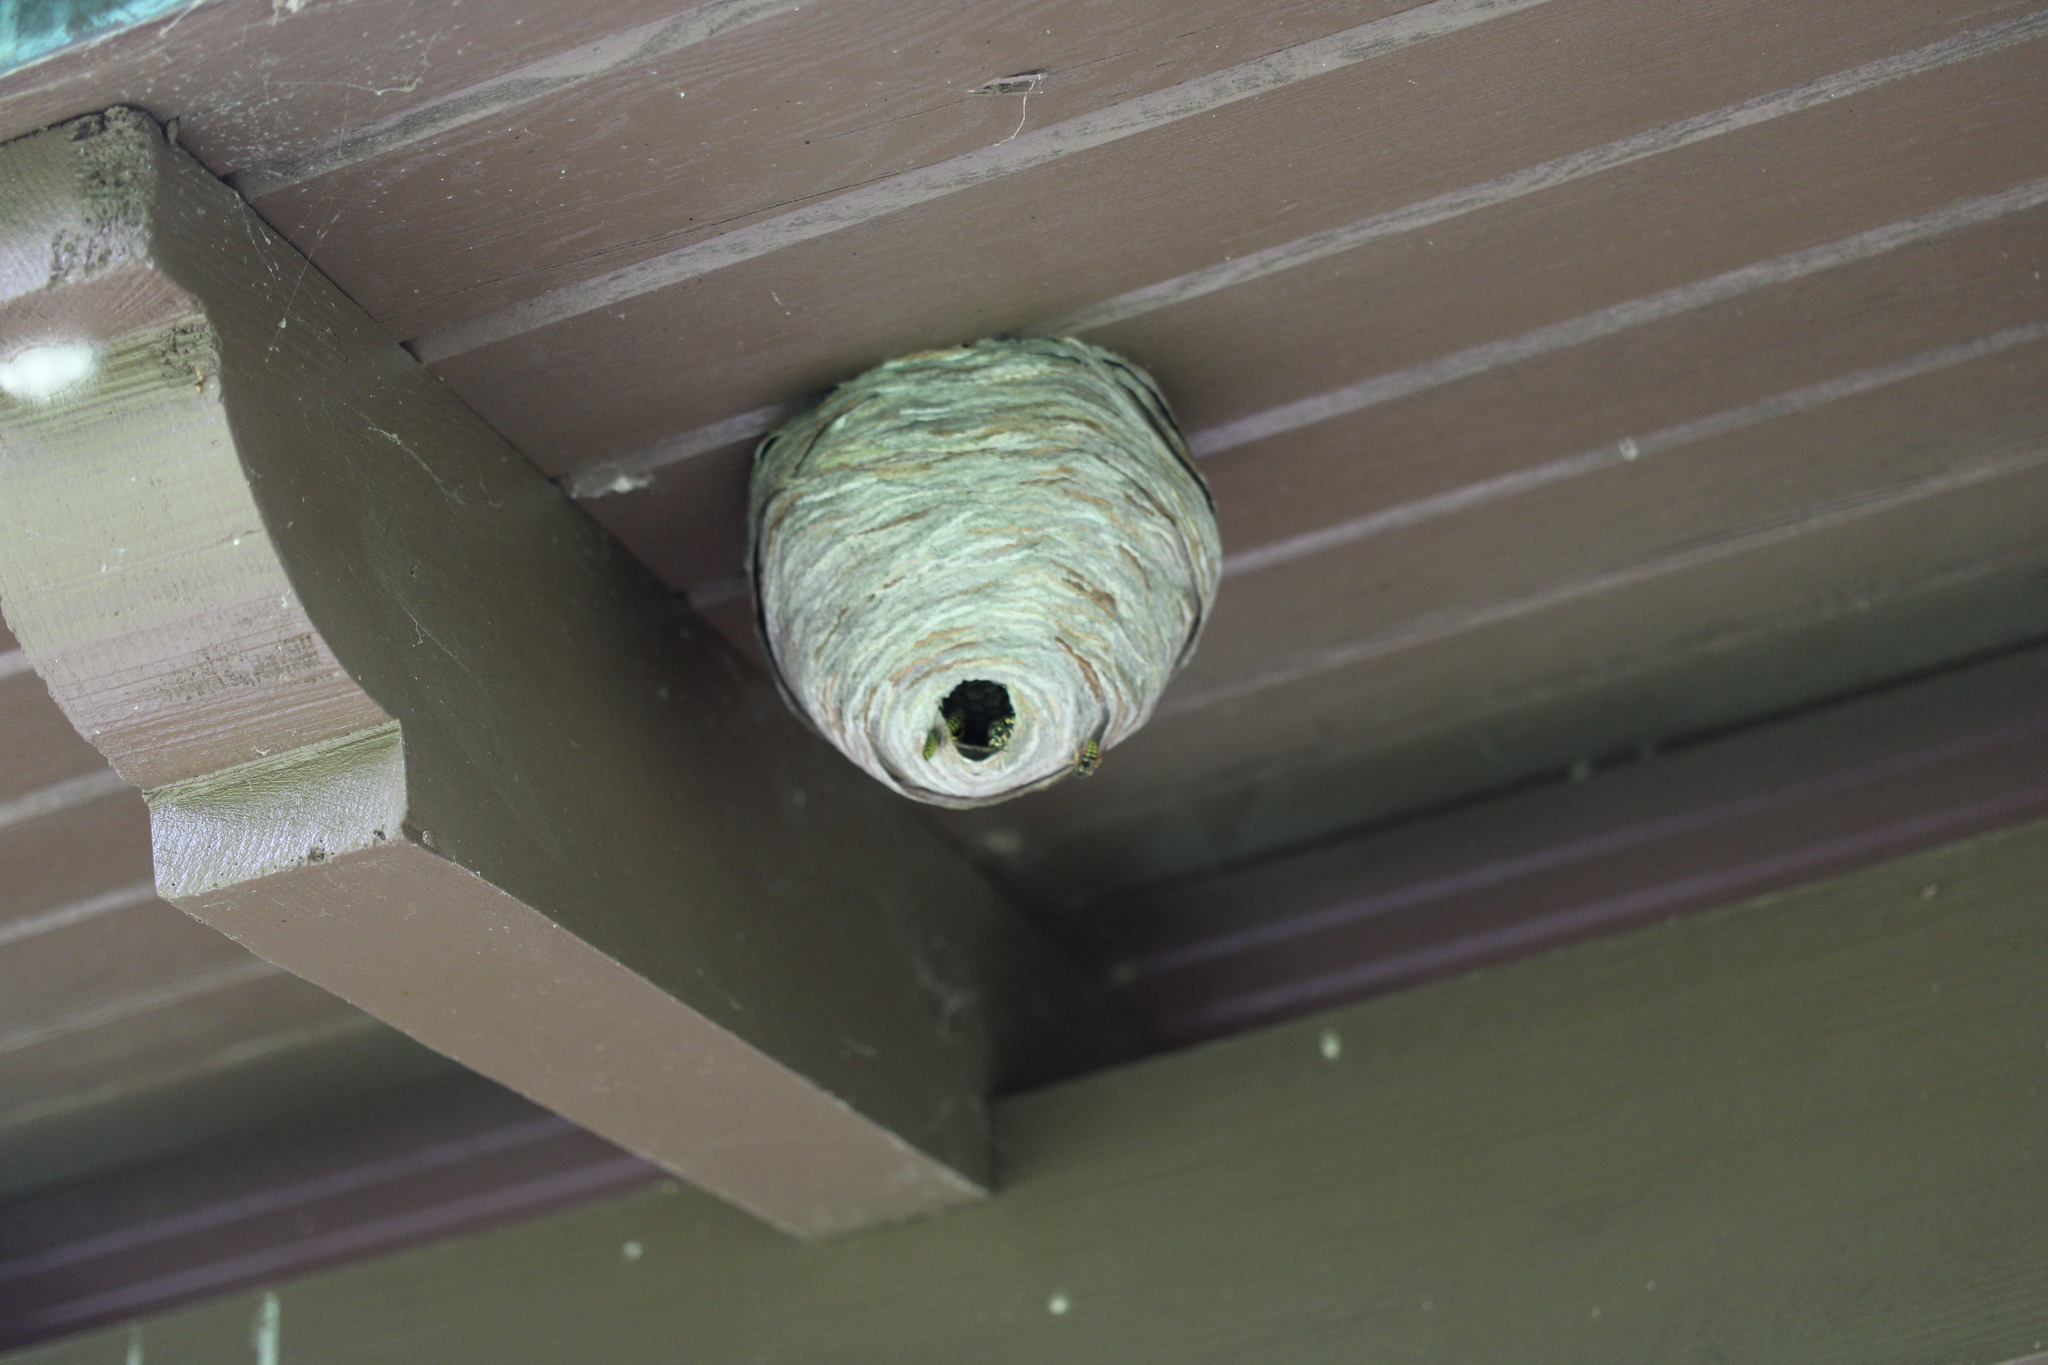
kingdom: Animalia
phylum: Arthropoda
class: Insecta
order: Hymenoptera
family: Vespidae
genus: Dolichovespula
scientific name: Dolichovespula arenaria
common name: Aerial yellowjacket
